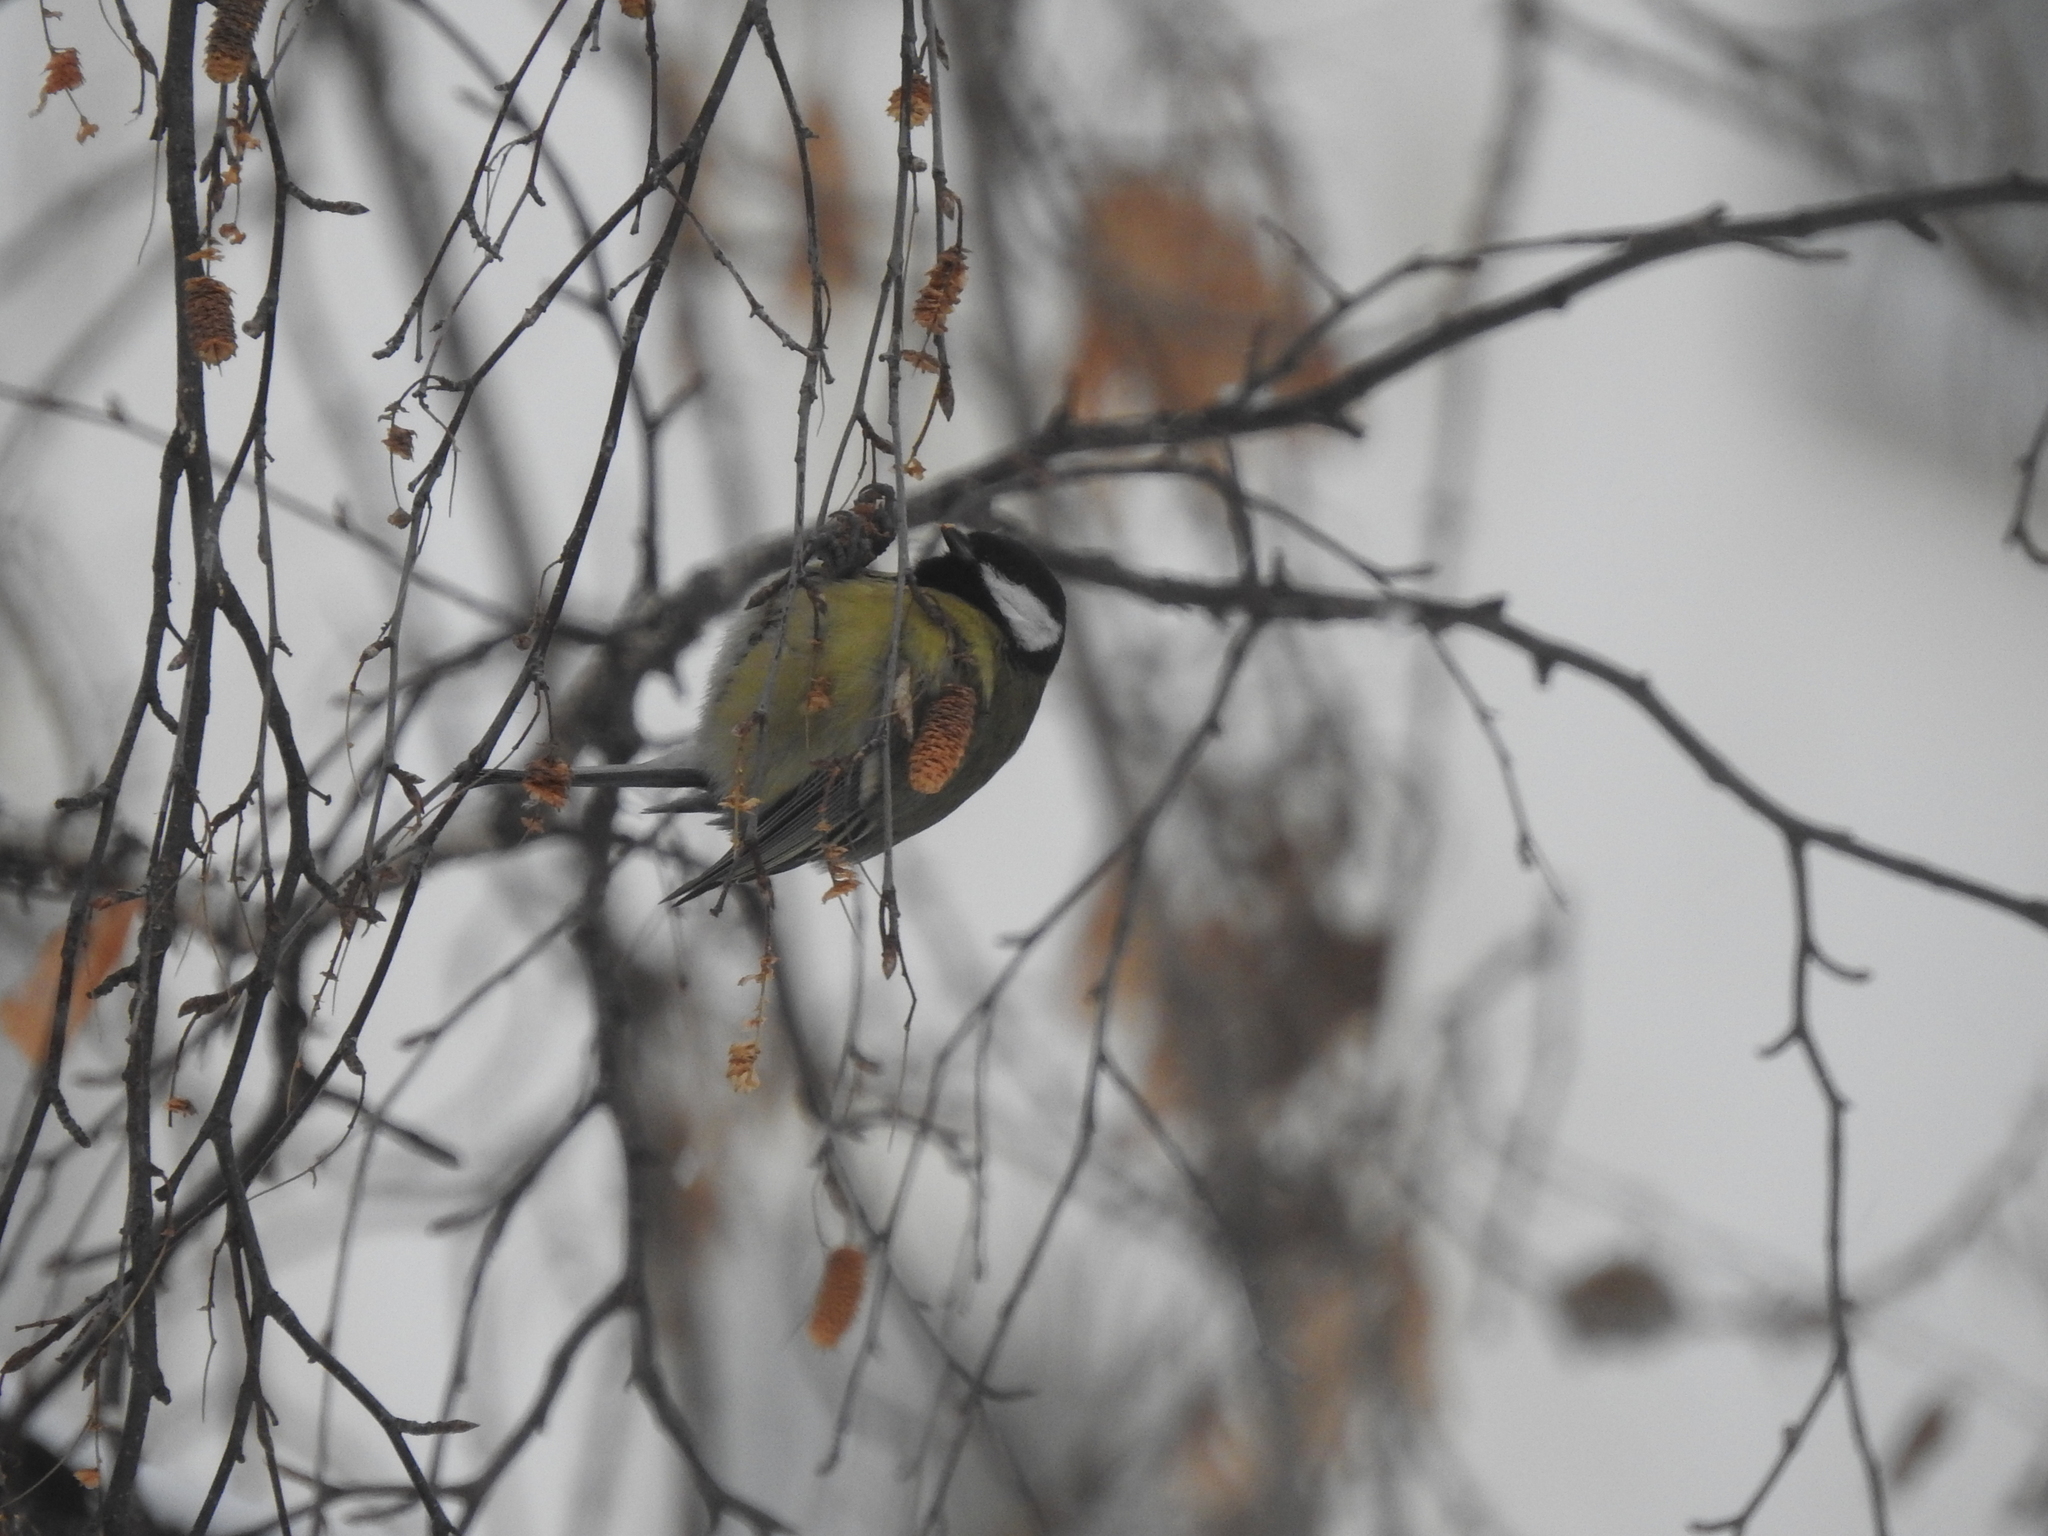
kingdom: Animalia
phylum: Chordata
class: Aves
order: Passeriformes
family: Paridae
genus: Parus
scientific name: Parus major
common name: Great tit
